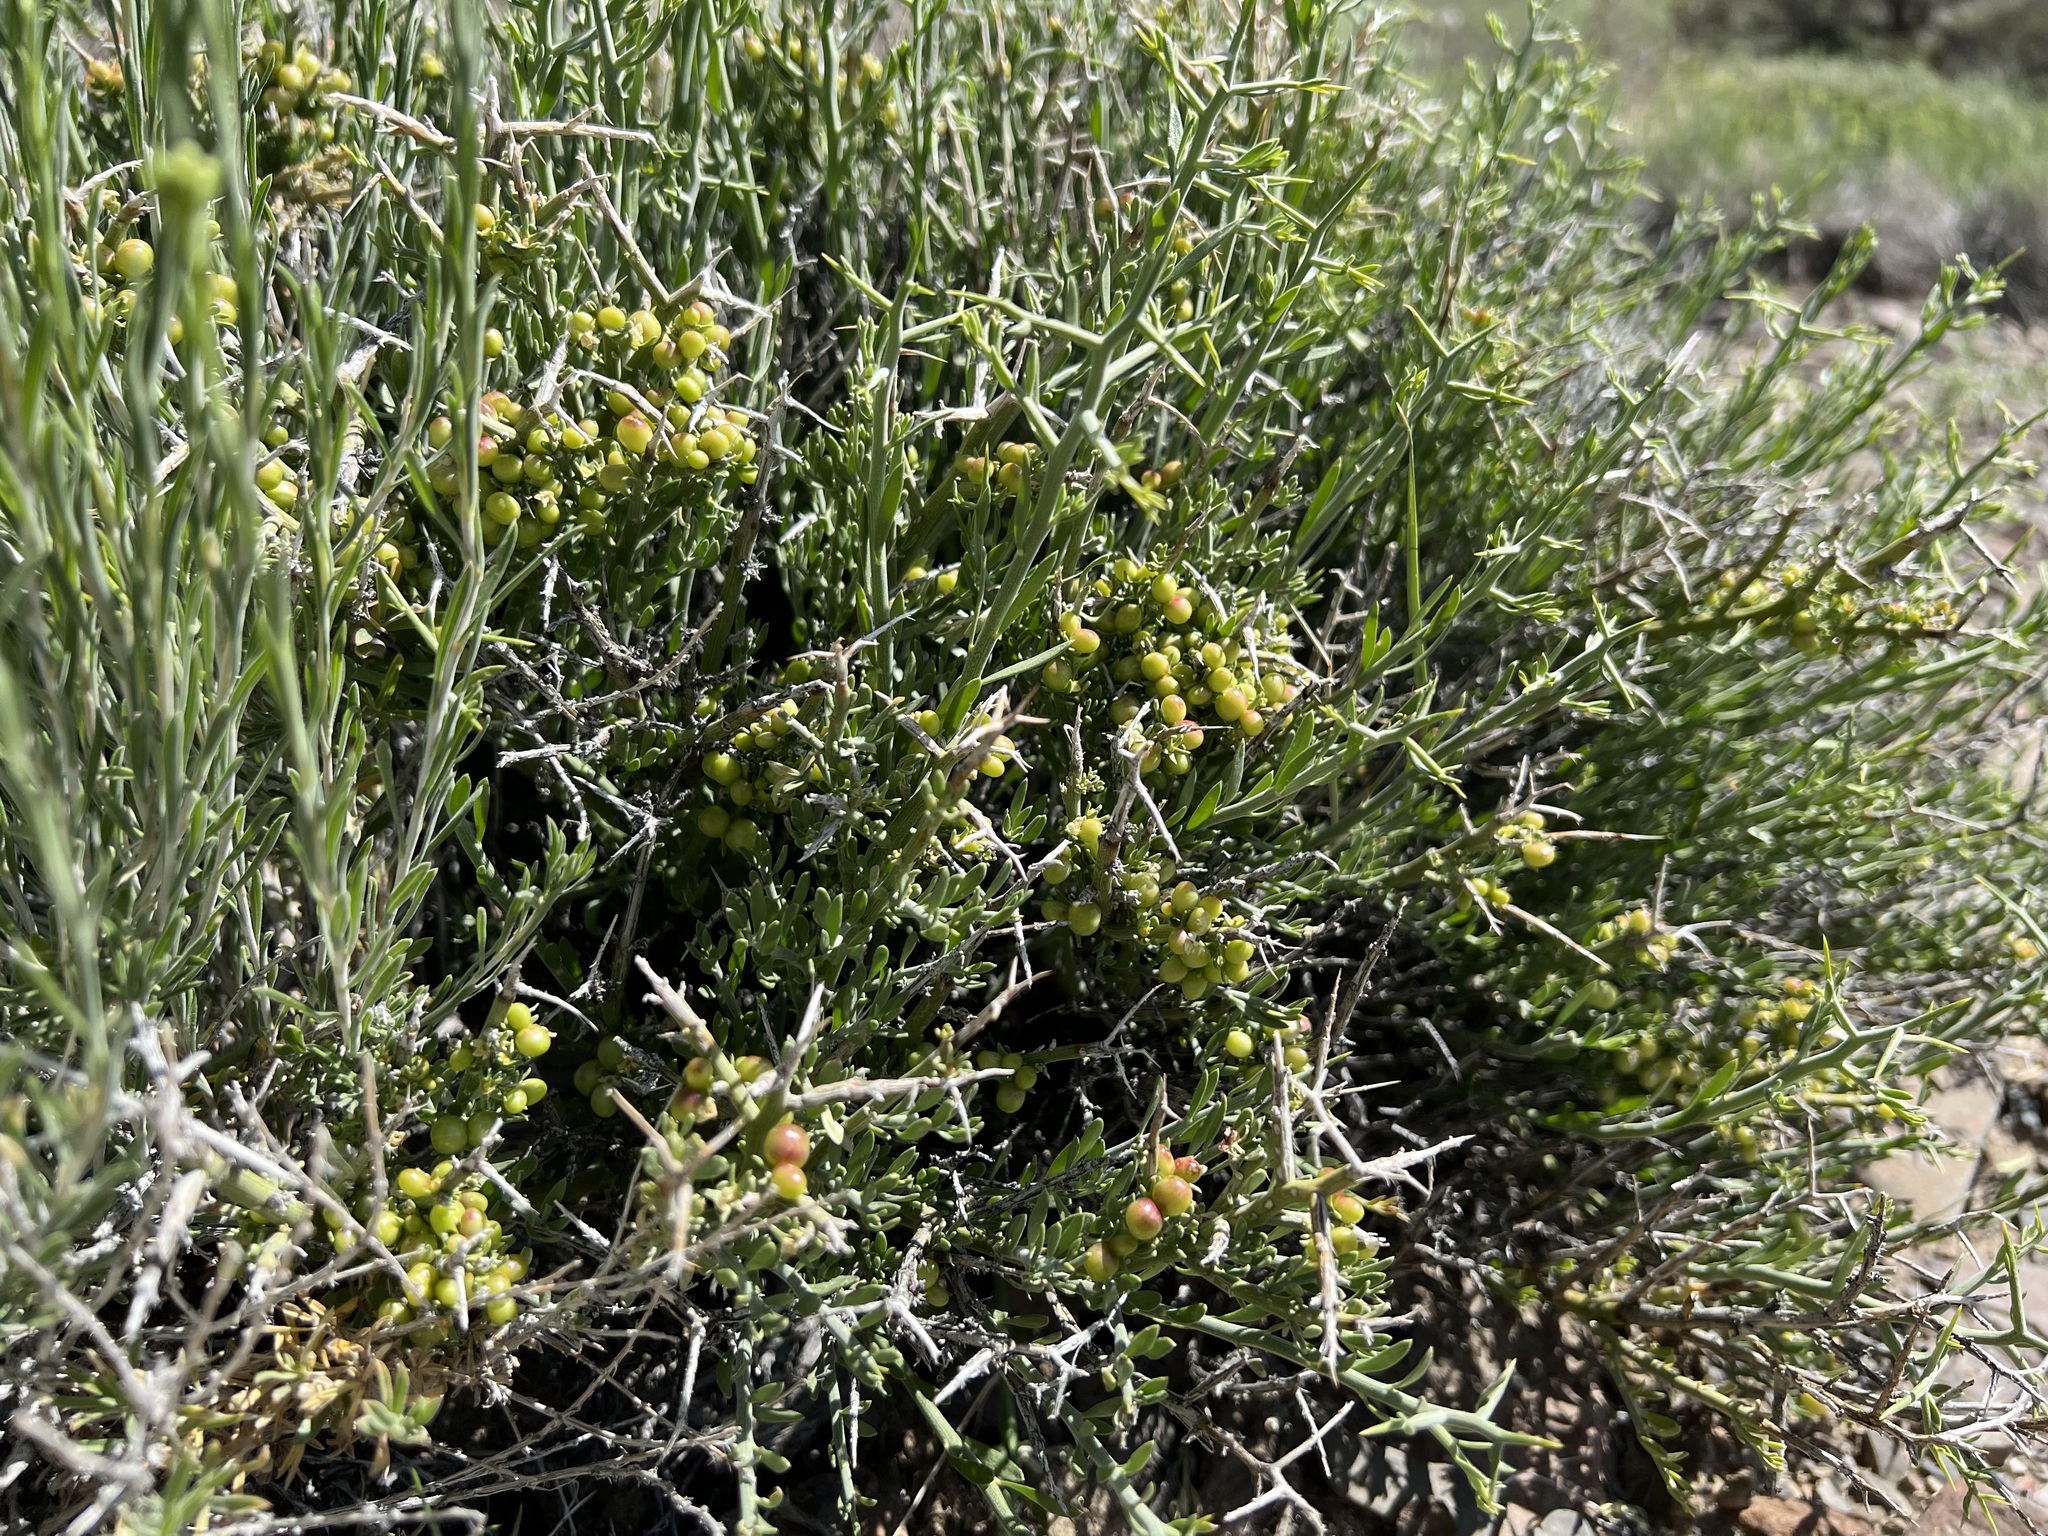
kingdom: Plantae
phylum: Tracheophyta
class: Magnoliopsida
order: Lamiales
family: Oleaceae
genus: Menodora
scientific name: Menodora spinescens
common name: Spiny menodora
